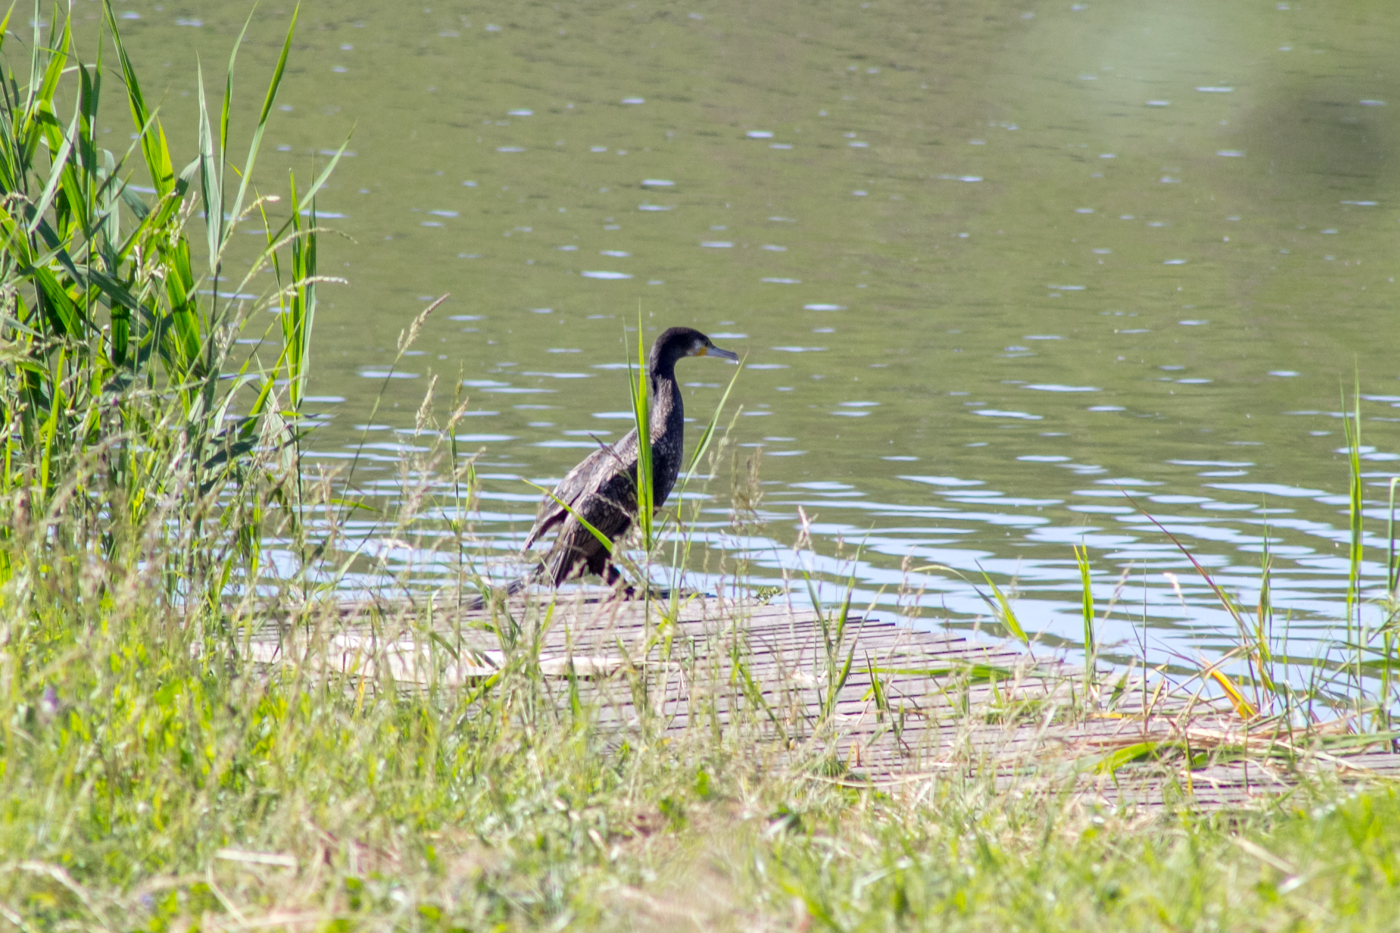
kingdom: Animalia
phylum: Chordata
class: Aves
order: Suliformes
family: Phalacrocoracidae
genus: Phalacrocorax
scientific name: Phalacrocorax carbo
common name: Great cormorant
